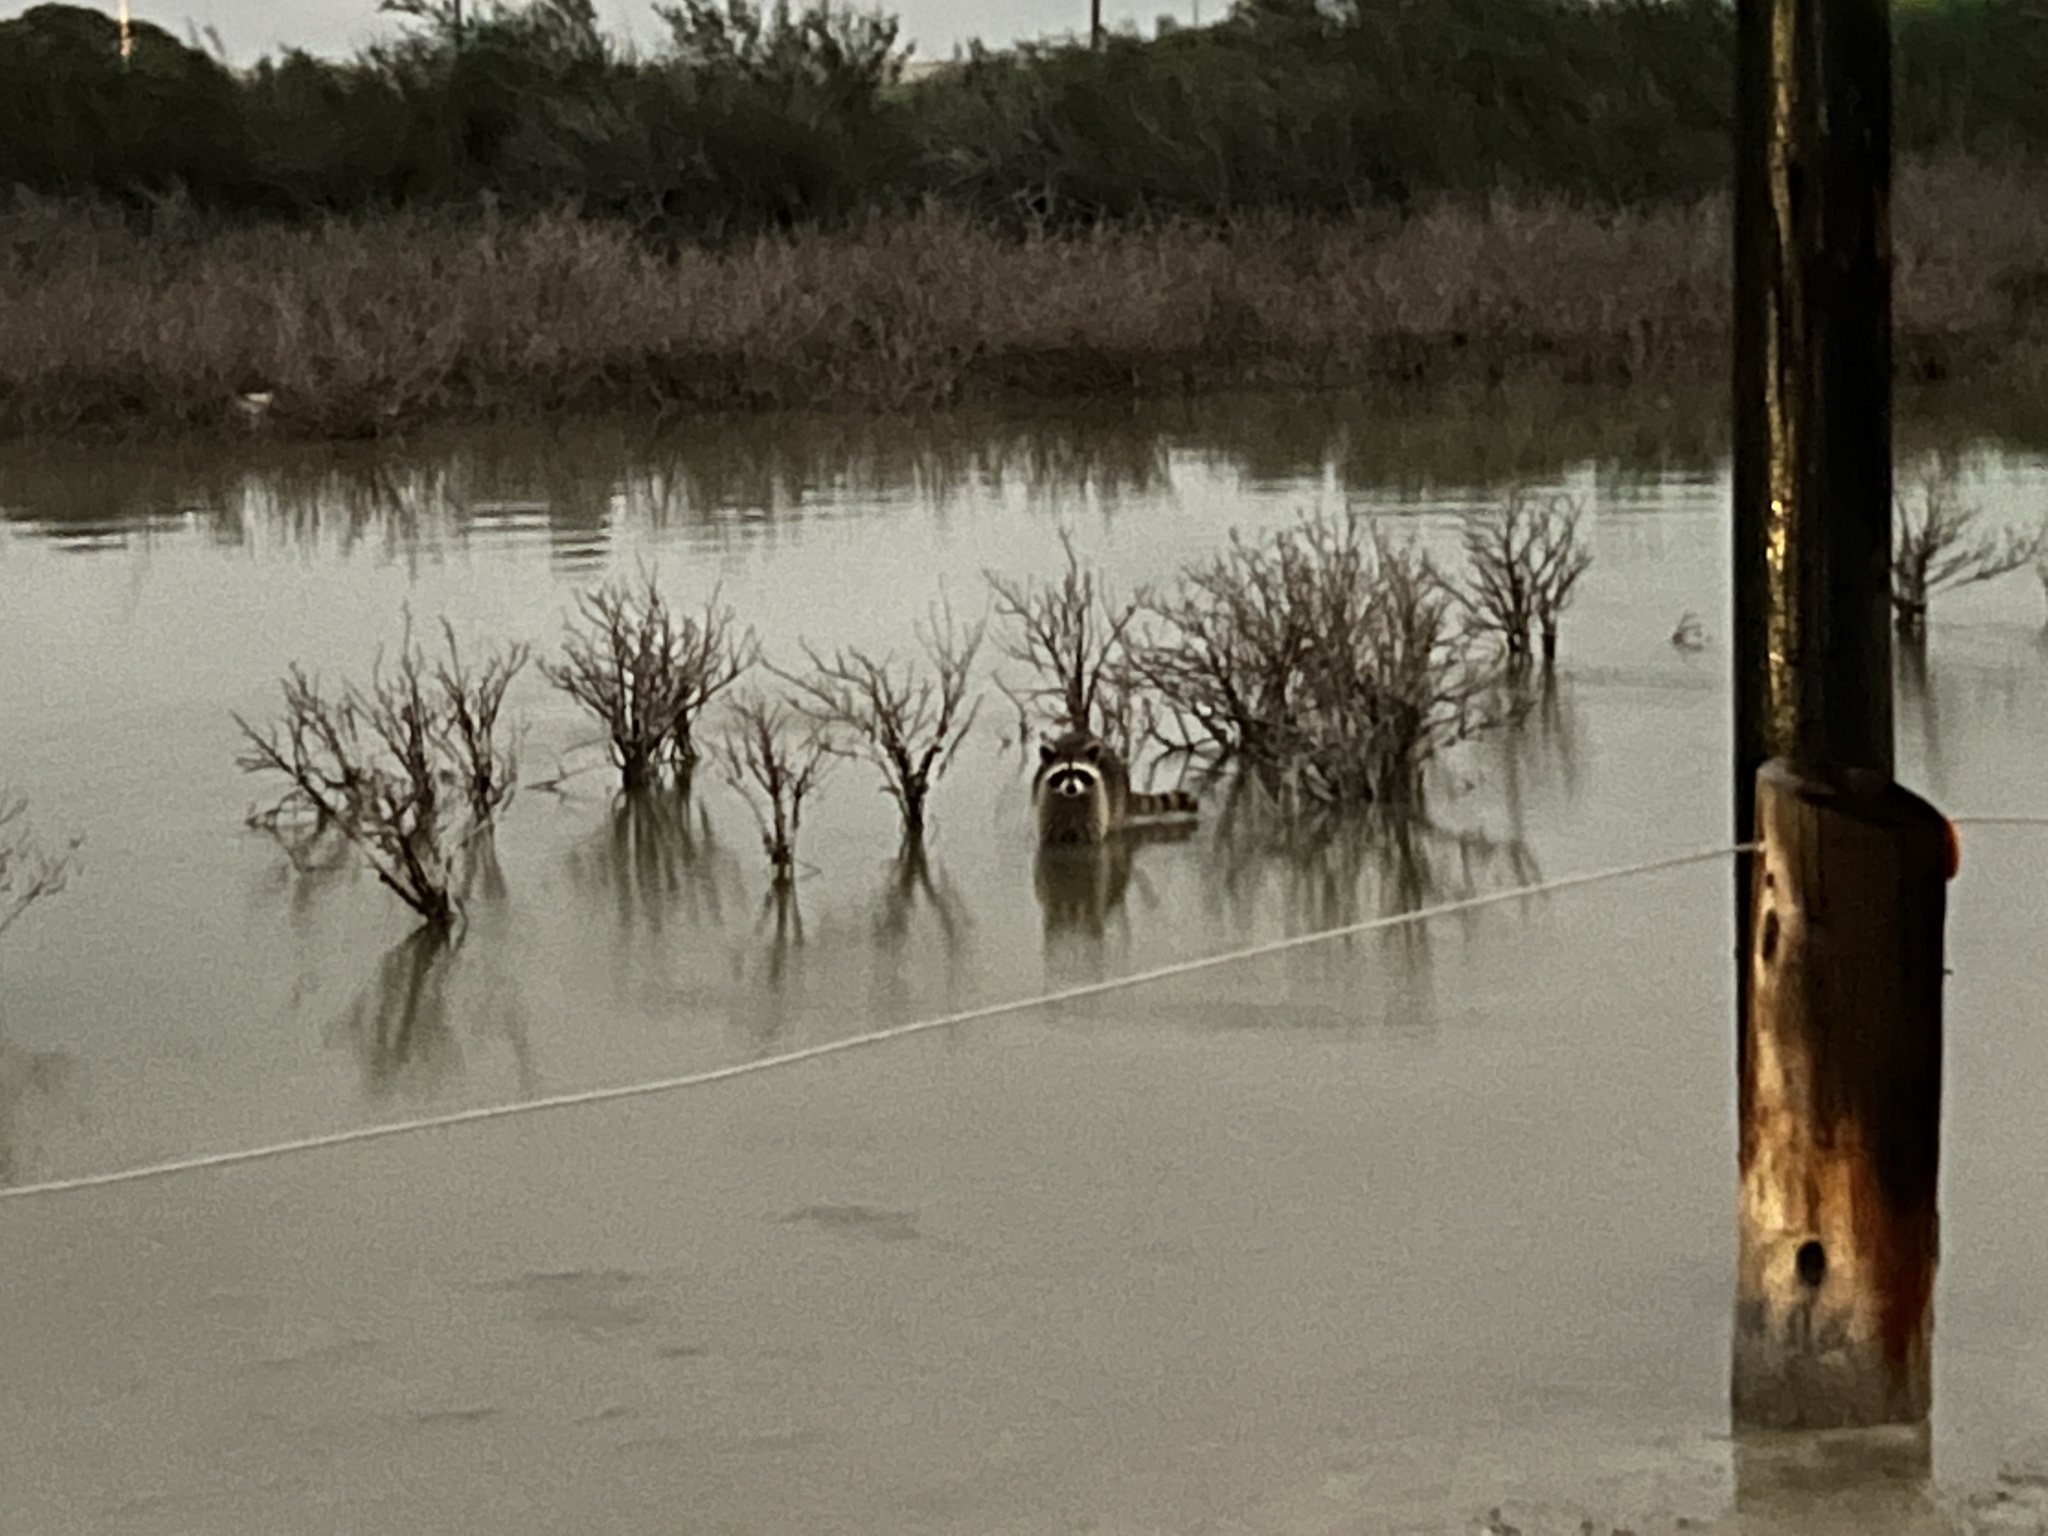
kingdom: Animalia
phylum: Chordata
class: Mammalia
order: Carnivora
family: Procyonidae
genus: Procyon
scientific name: Procyon lotor
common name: Raccoon
